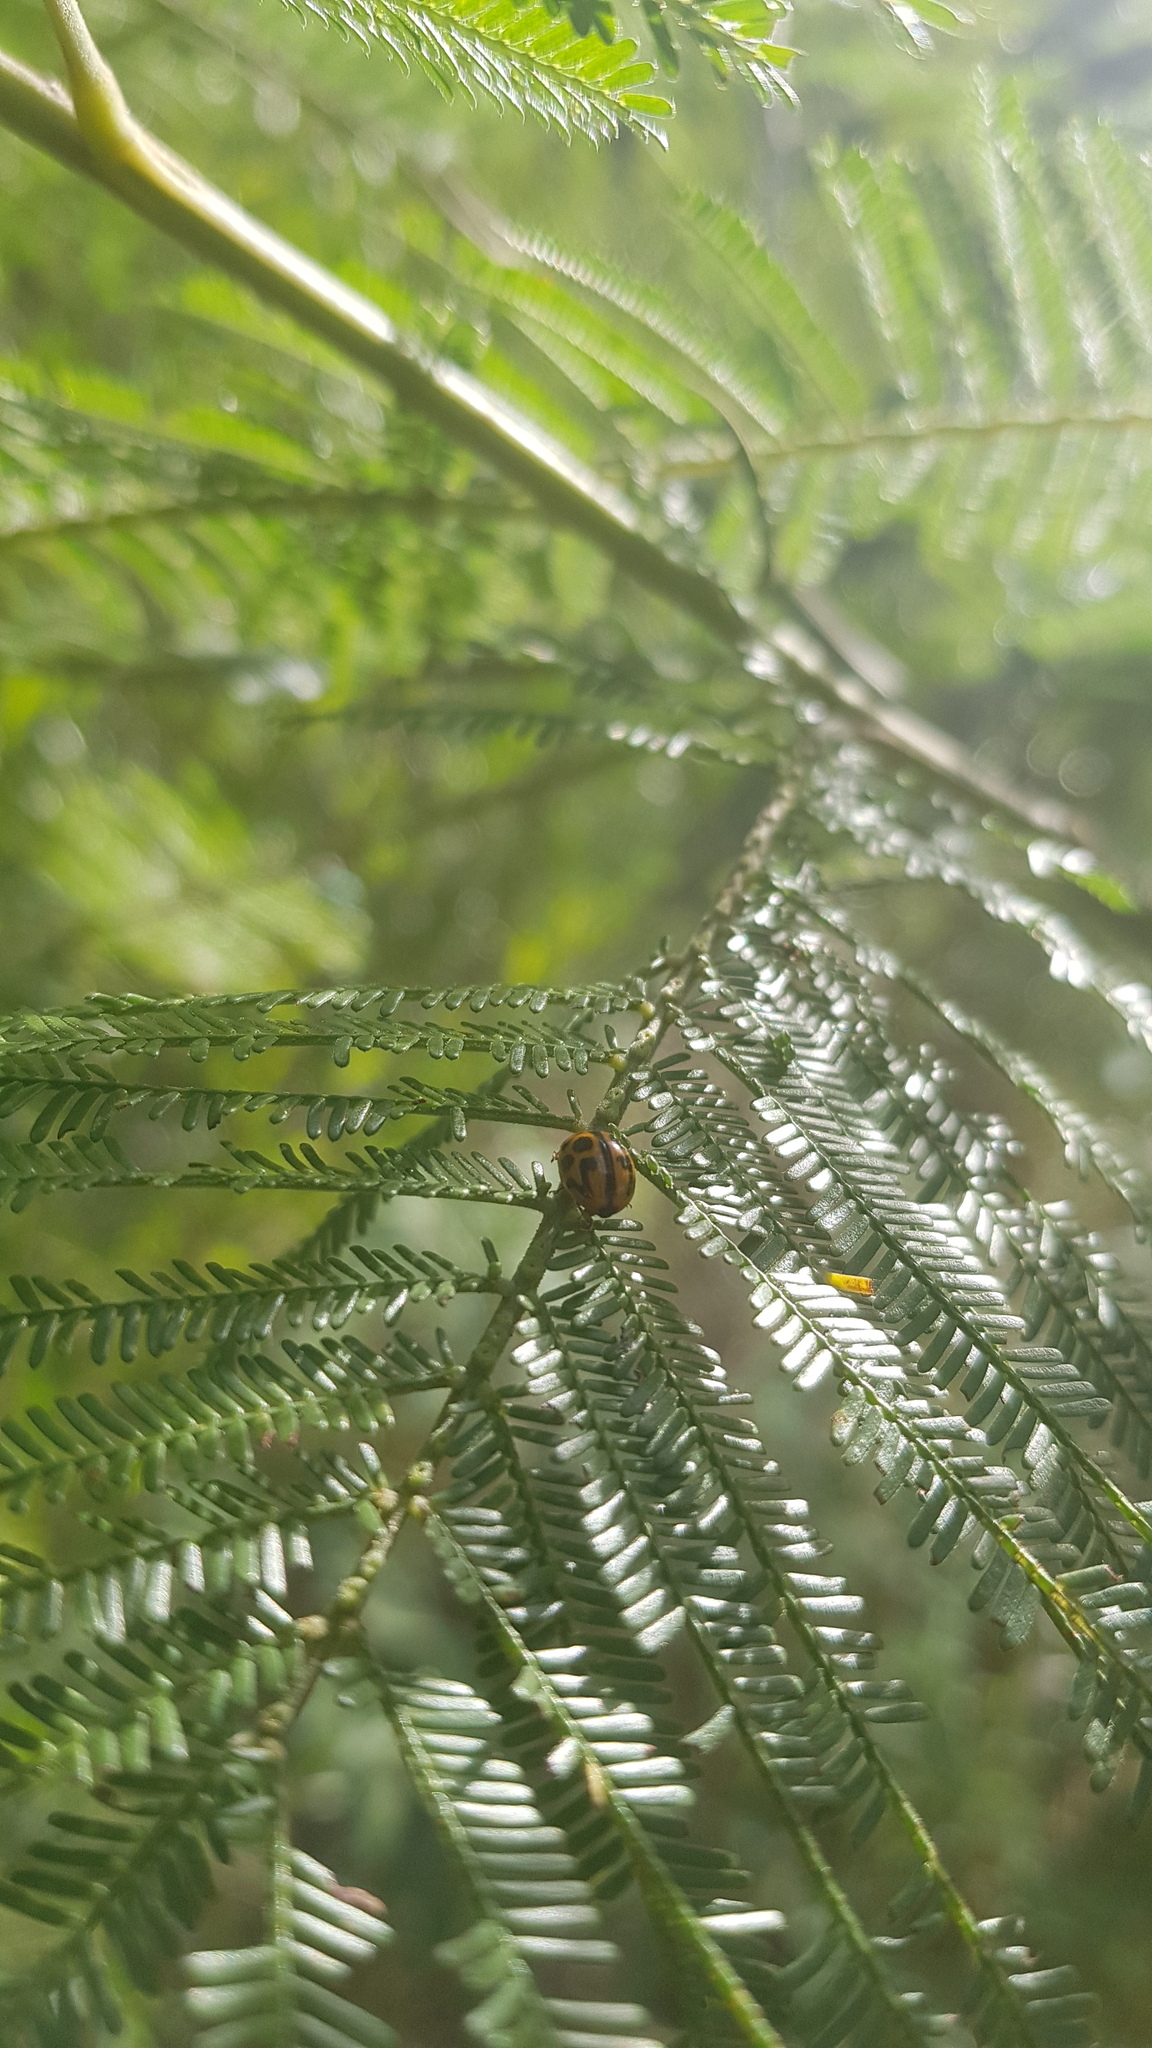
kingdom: Animalia
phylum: Arthropoda
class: Insecta
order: Coleoptera
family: Chrysomelidae
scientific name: Chrysomelidae
